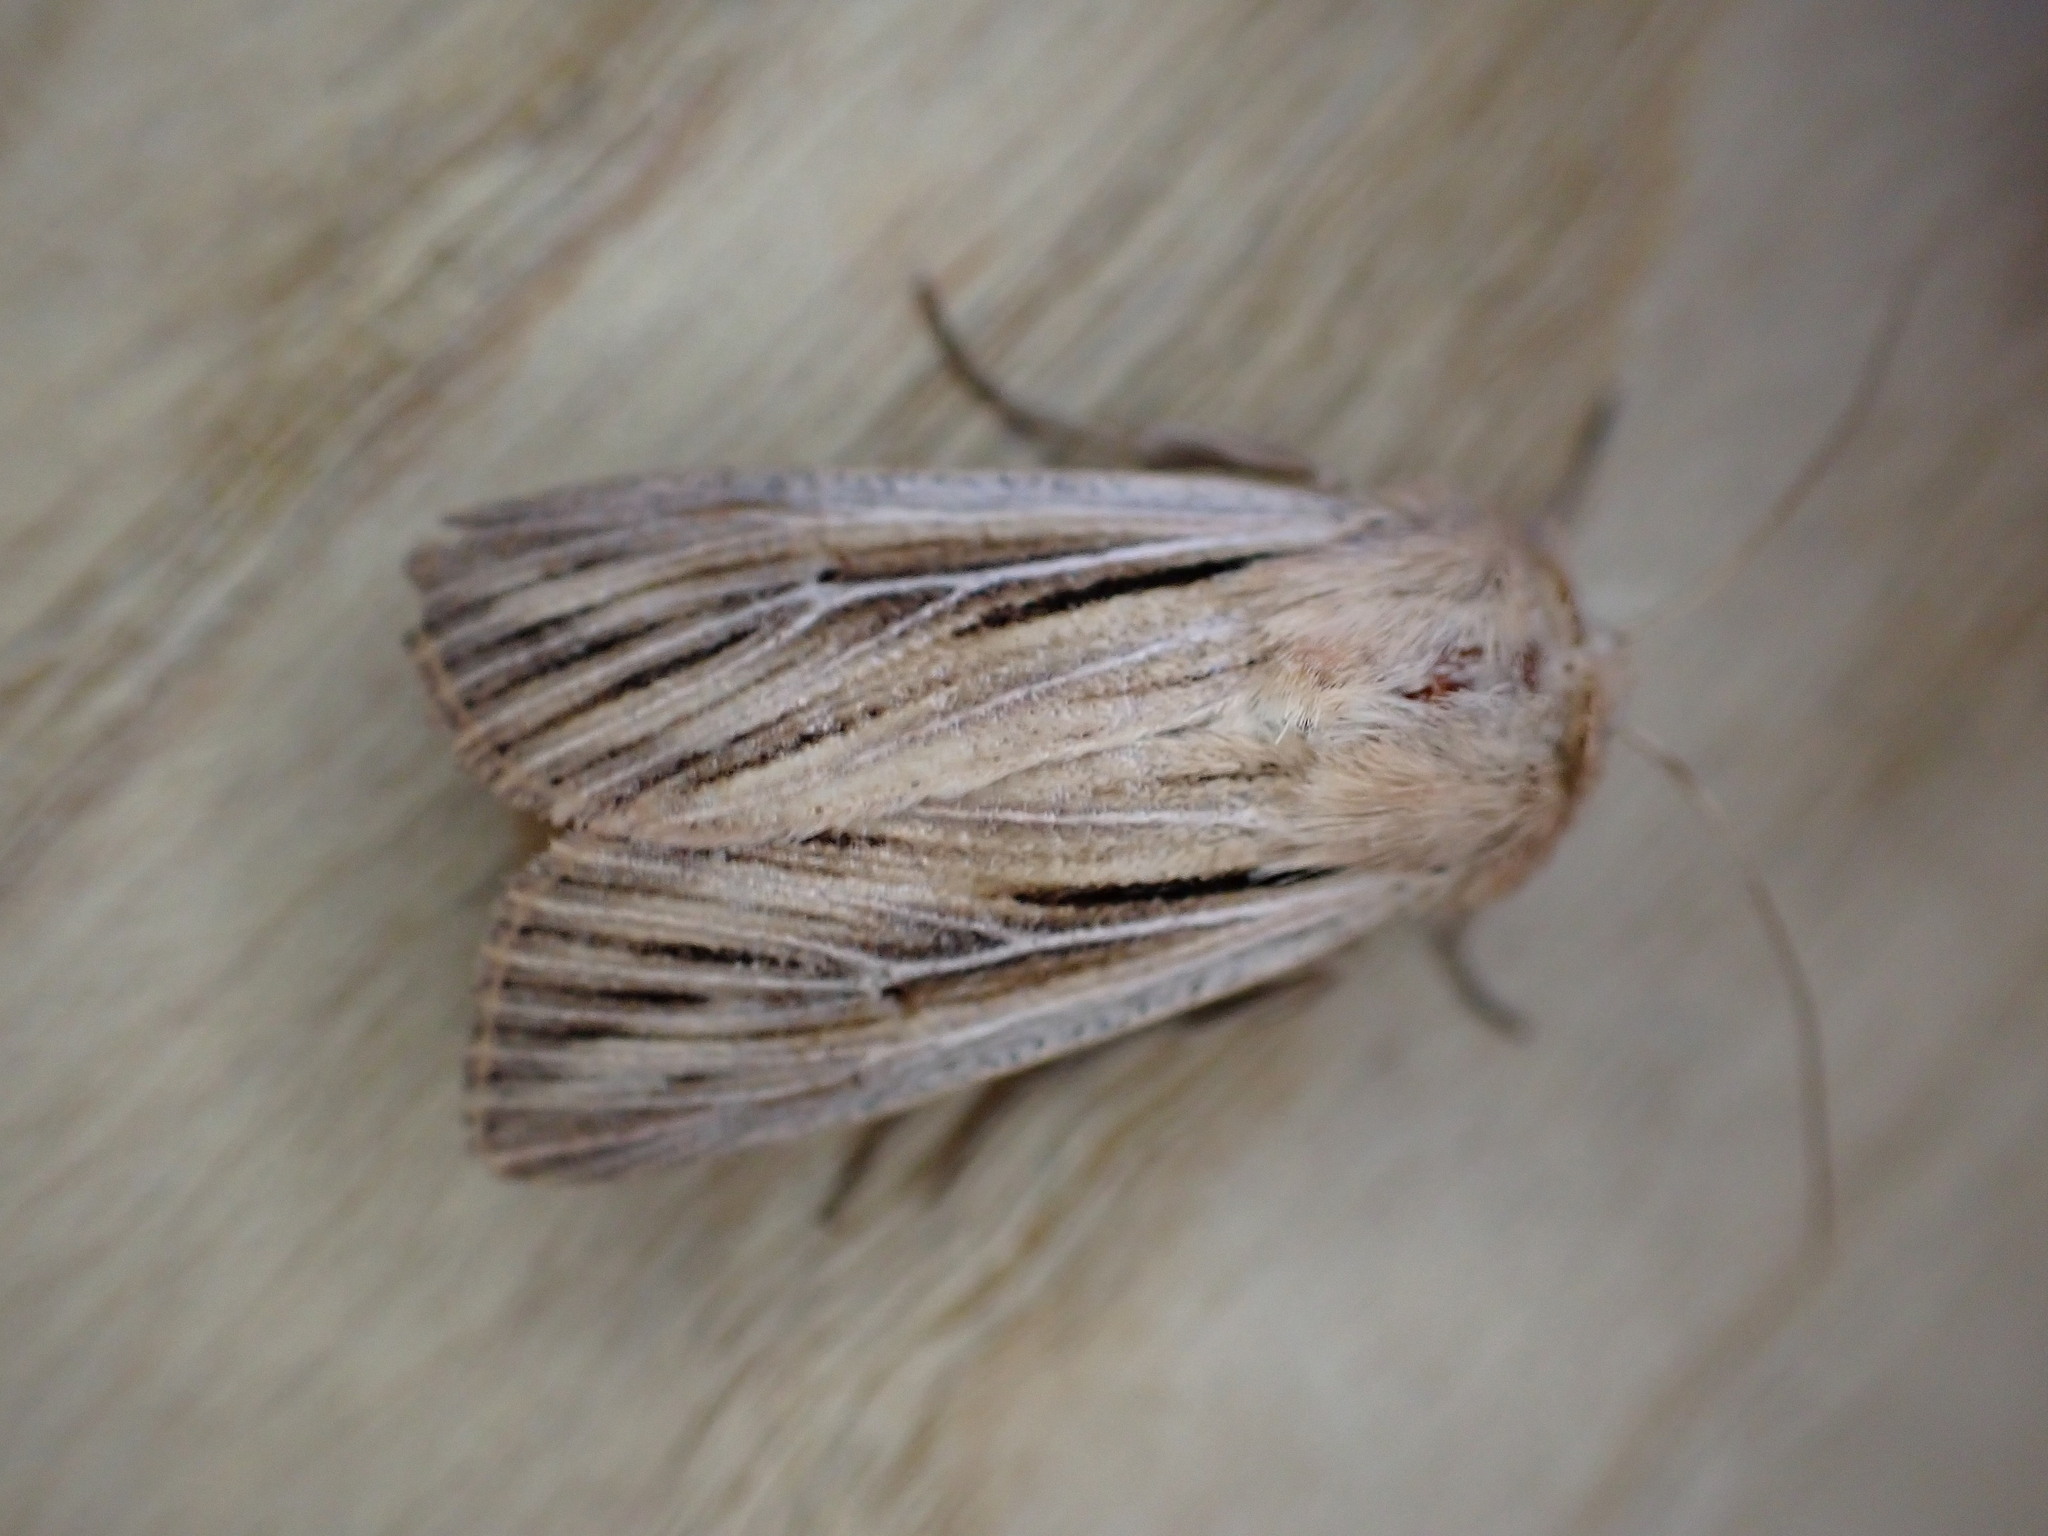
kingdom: Animalia
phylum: Arthropoda
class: Insecta
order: Lepidoptera
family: Noctuidae
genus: Leucania
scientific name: Leucania comma
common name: Shoulder-striped wainscot
